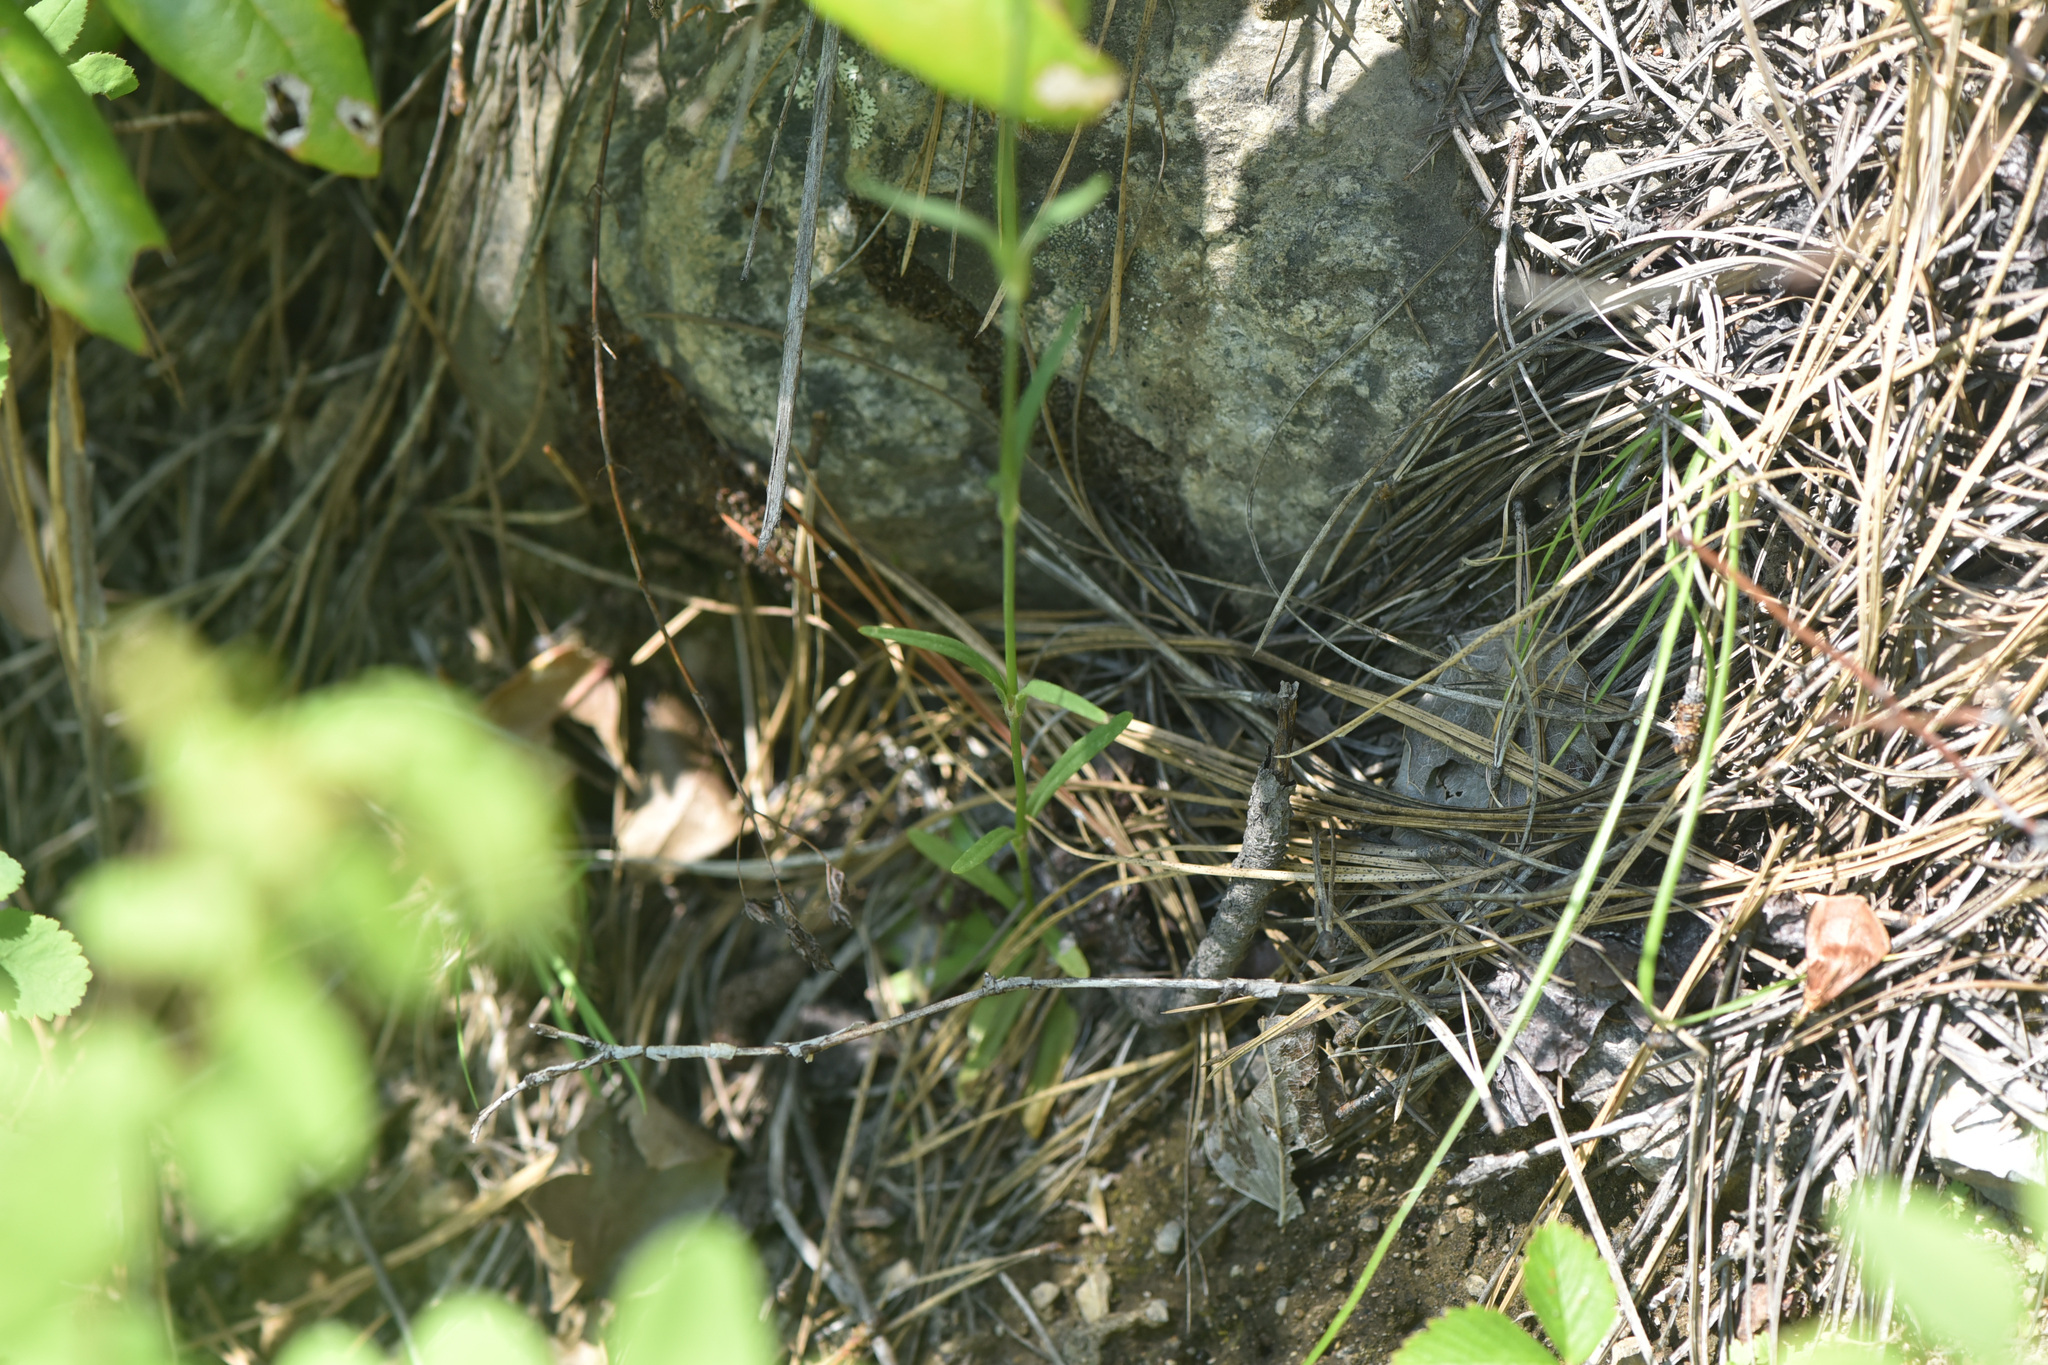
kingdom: Plantae
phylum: Tracheophyta
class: Magnoliopsida
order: Caryophyllales
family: Caryophyllaceae
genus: Dianthus
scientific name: Dianthus armeria
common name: Deptford pink
